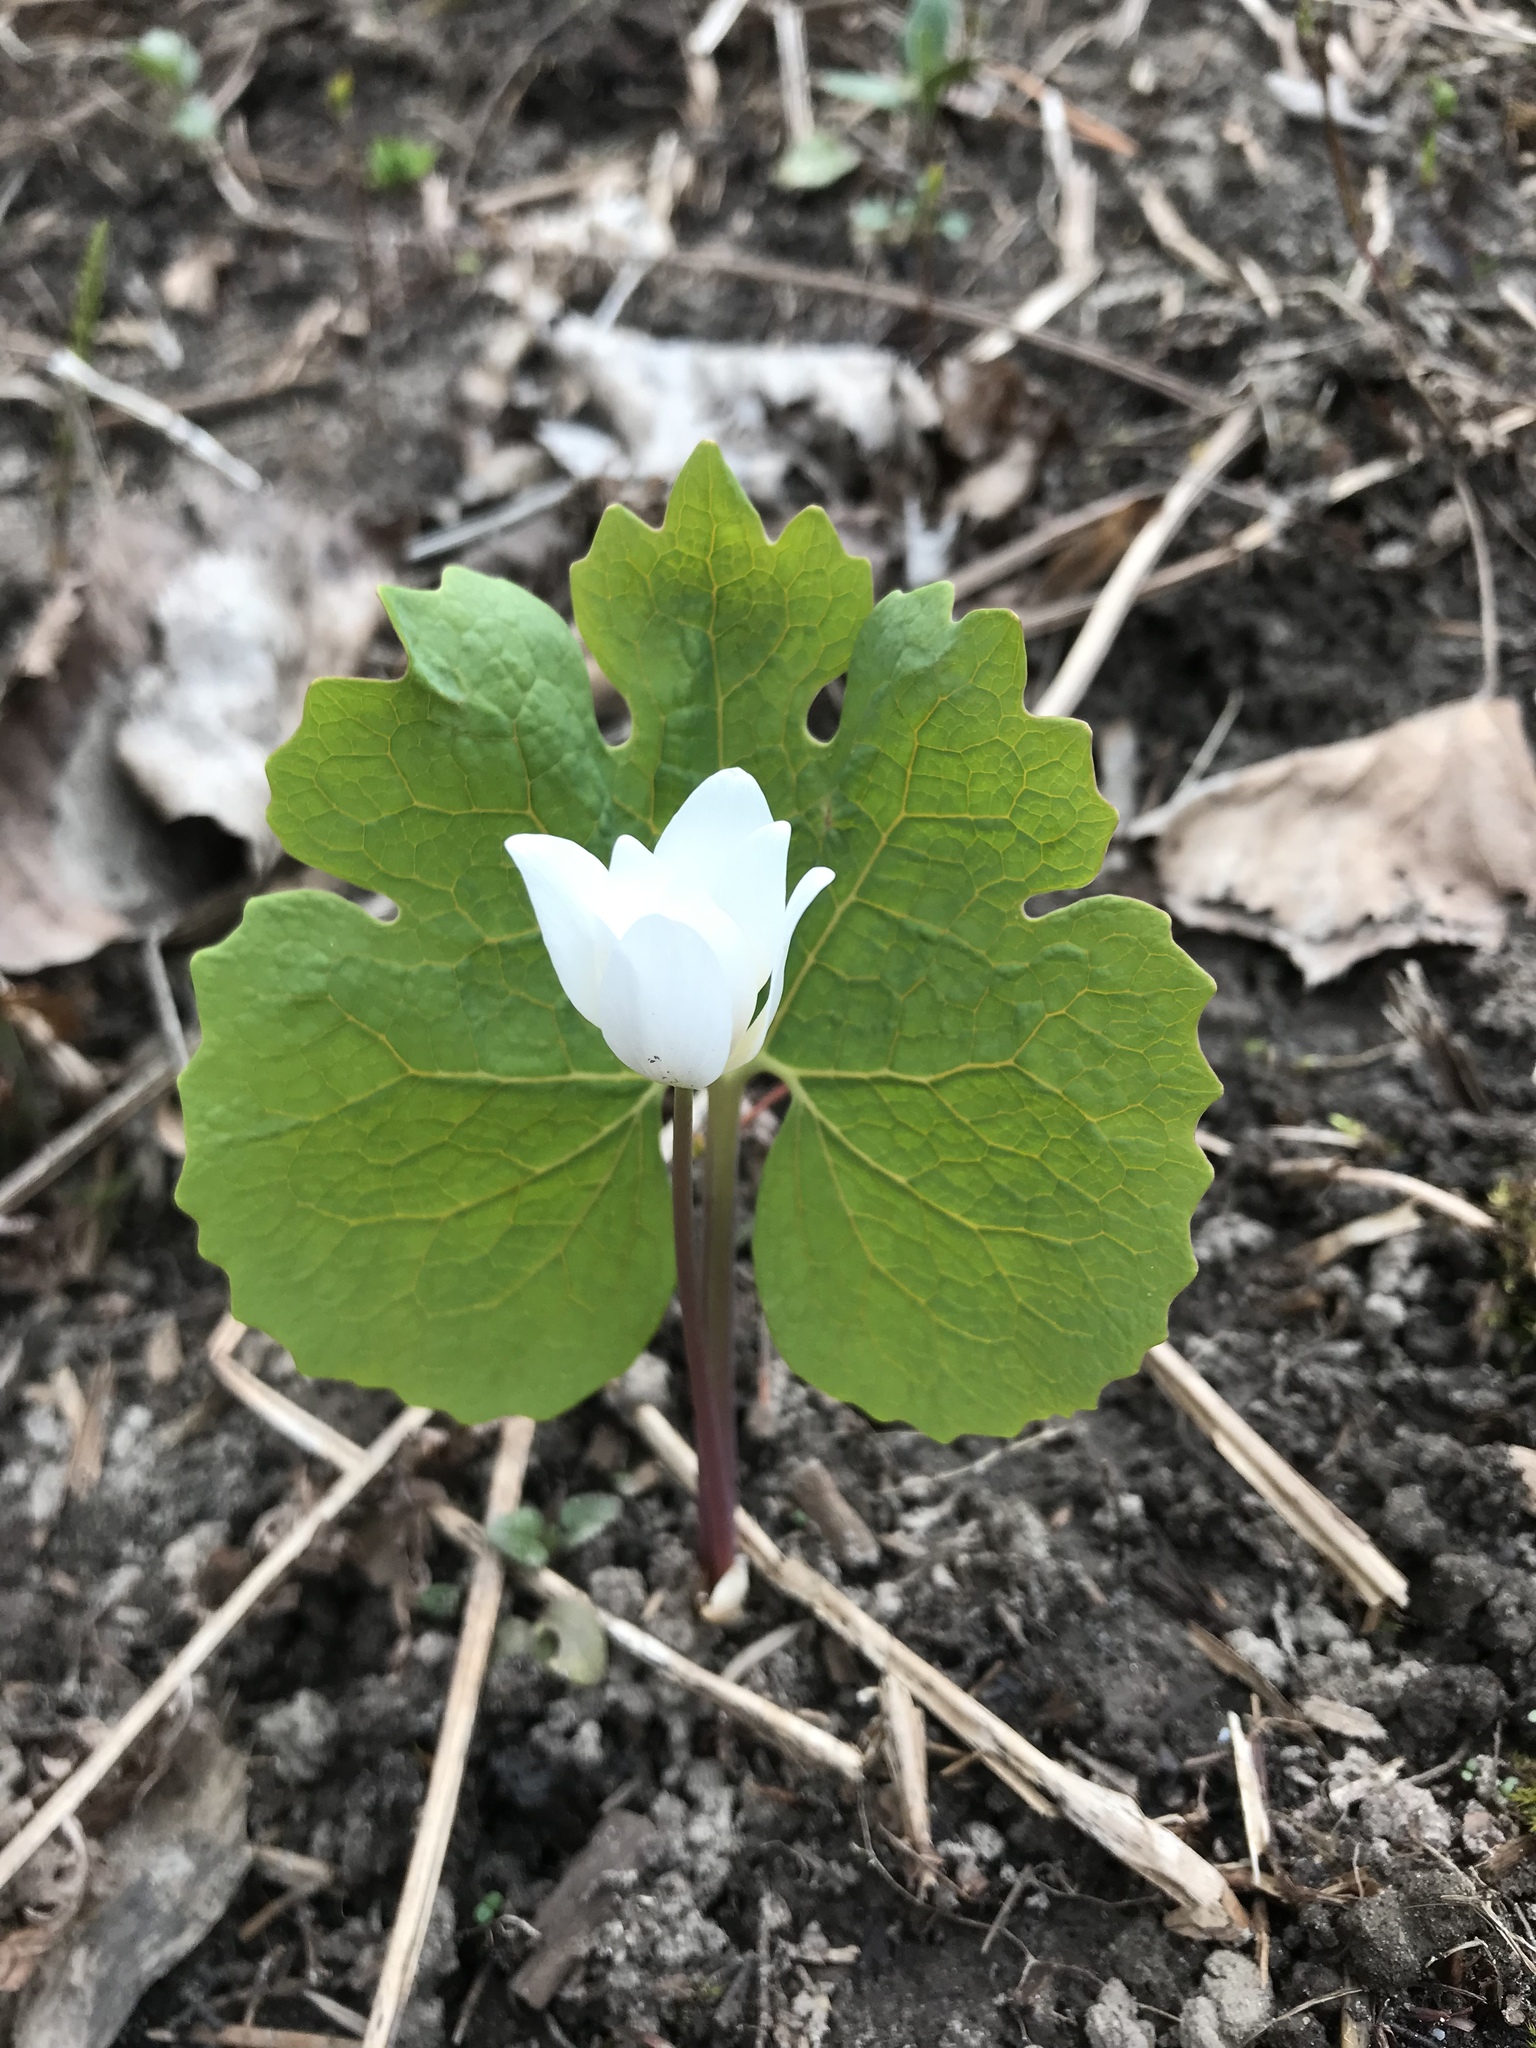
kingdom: Plantae
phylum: Tracheophyta
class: Magnoliopsida
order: Ranunculales
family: Papaveraceae
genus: Sanguinaria
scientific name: Sanguinaria canadensis
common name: Bloodroot
